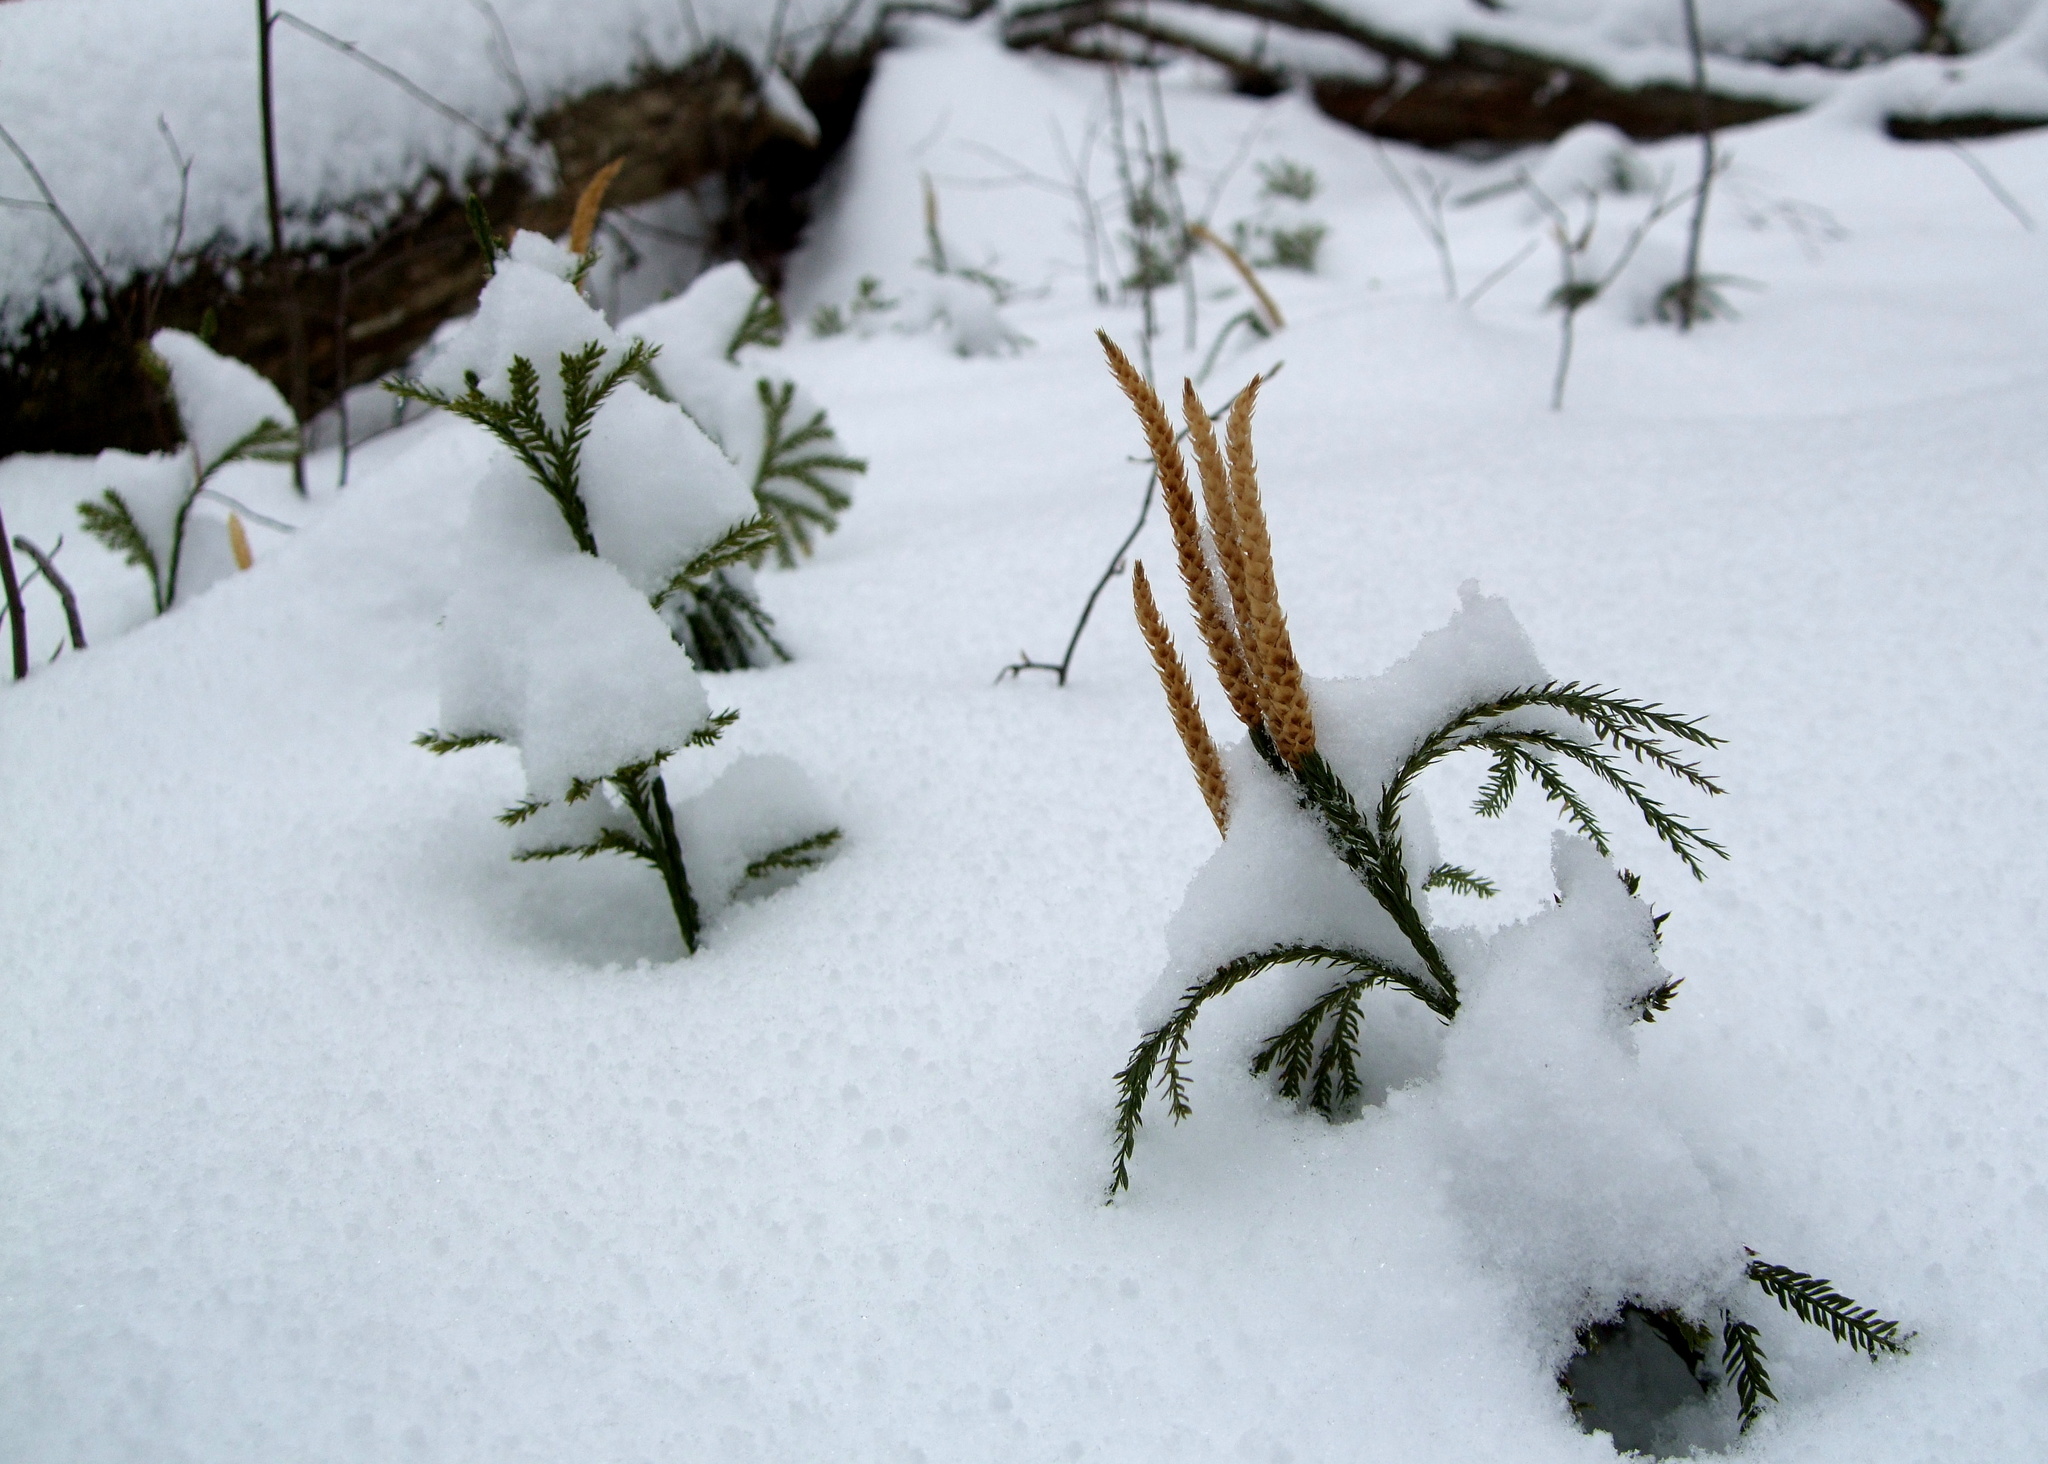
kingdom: Plantae
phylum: Tracheophyta
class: Lycopodiopsida
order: Lycopodiales
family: Lycopodiaceae
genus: Dendrolycopodium
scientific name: Dendrolycopodium obscurum
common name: Common ground-pine
